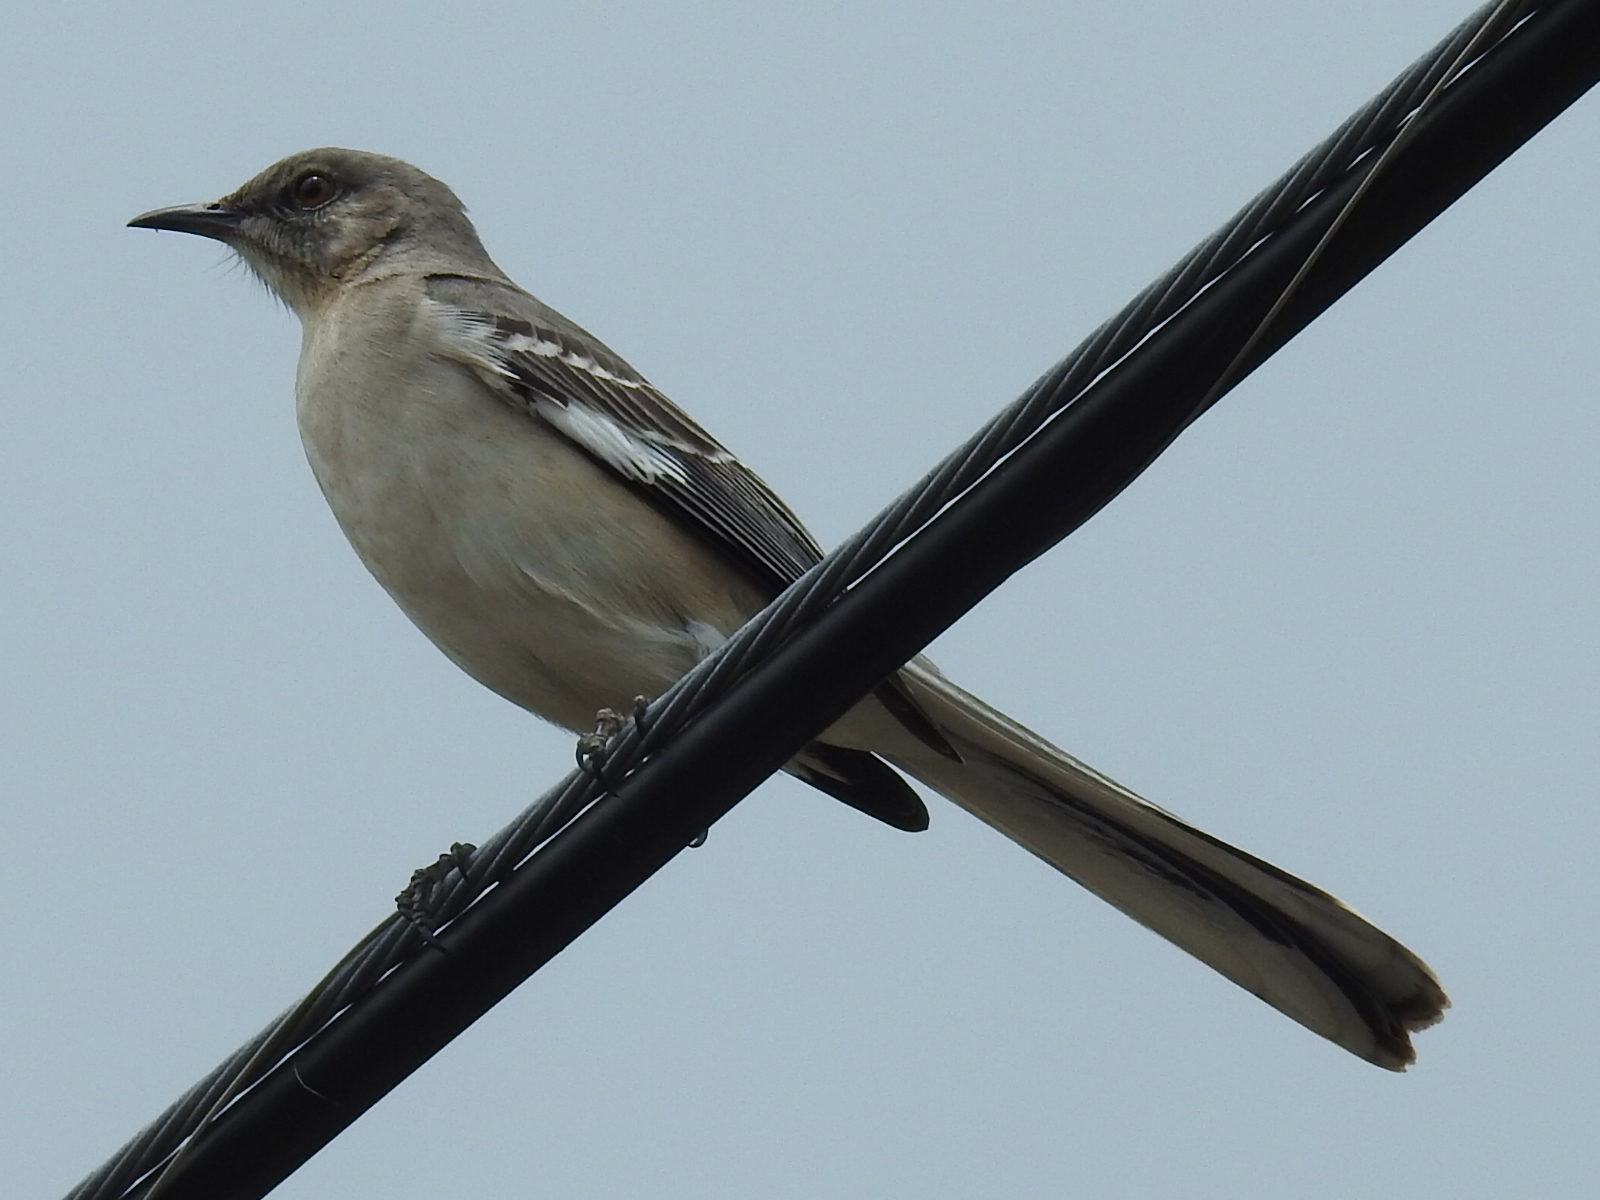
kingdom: Animalia
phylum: Chordata
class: Aves
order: Passeriformes
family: Mimidae
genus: Mimus
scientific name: Mimus polyglottos
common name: Northern mockingbird
